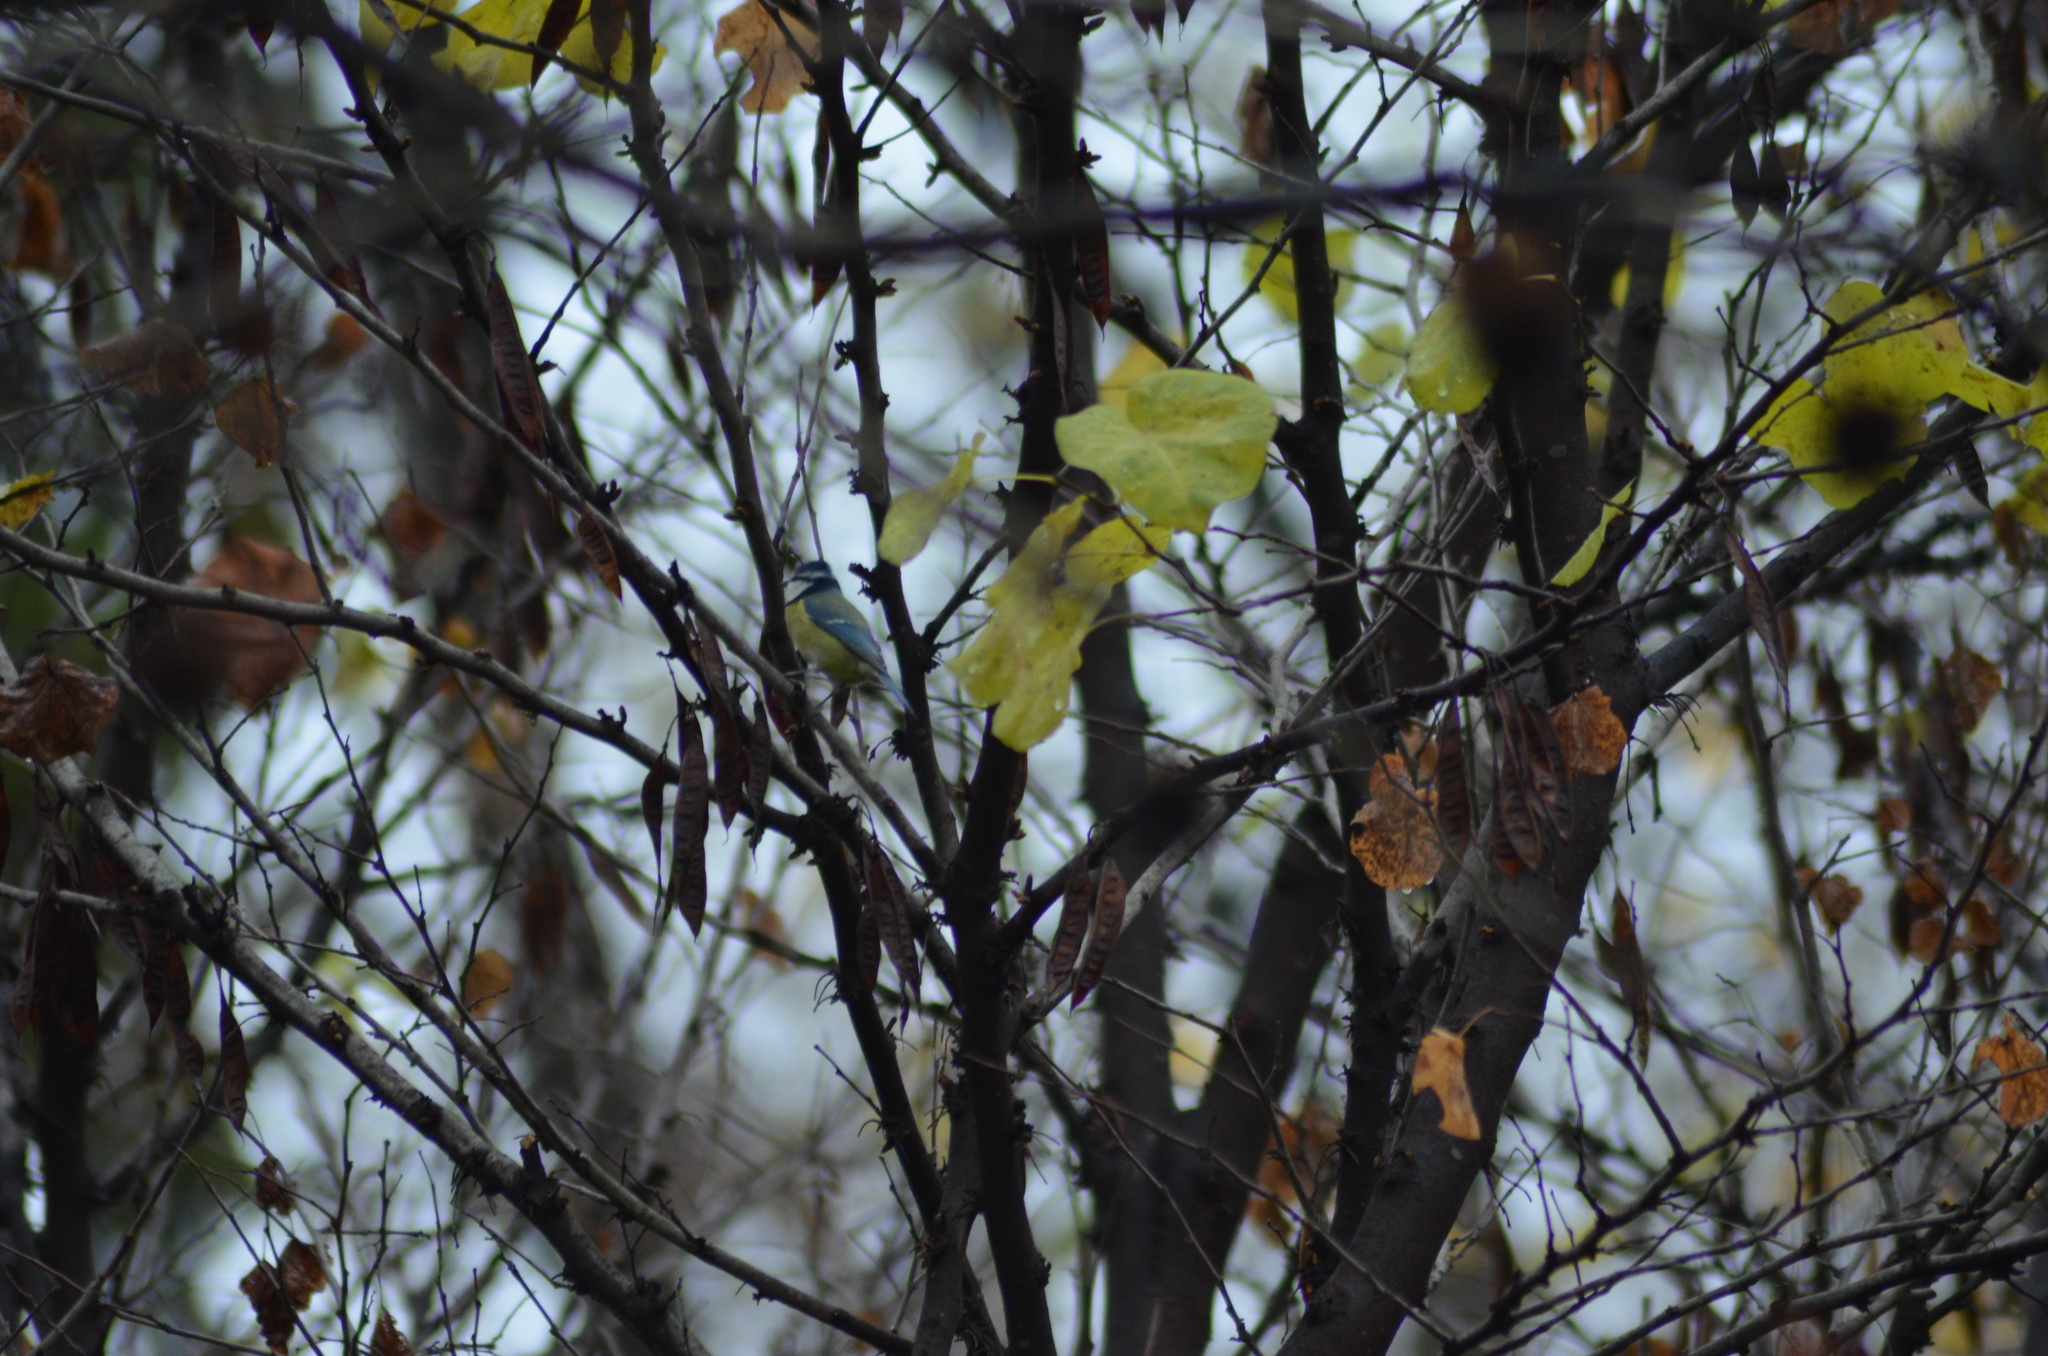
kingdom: Animalia
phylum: Chordata
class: Aves
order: Passeriformes
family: Paridae
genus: Cyanistes
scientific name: Cyanistes caeruleus
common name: Eurasian blue tit
